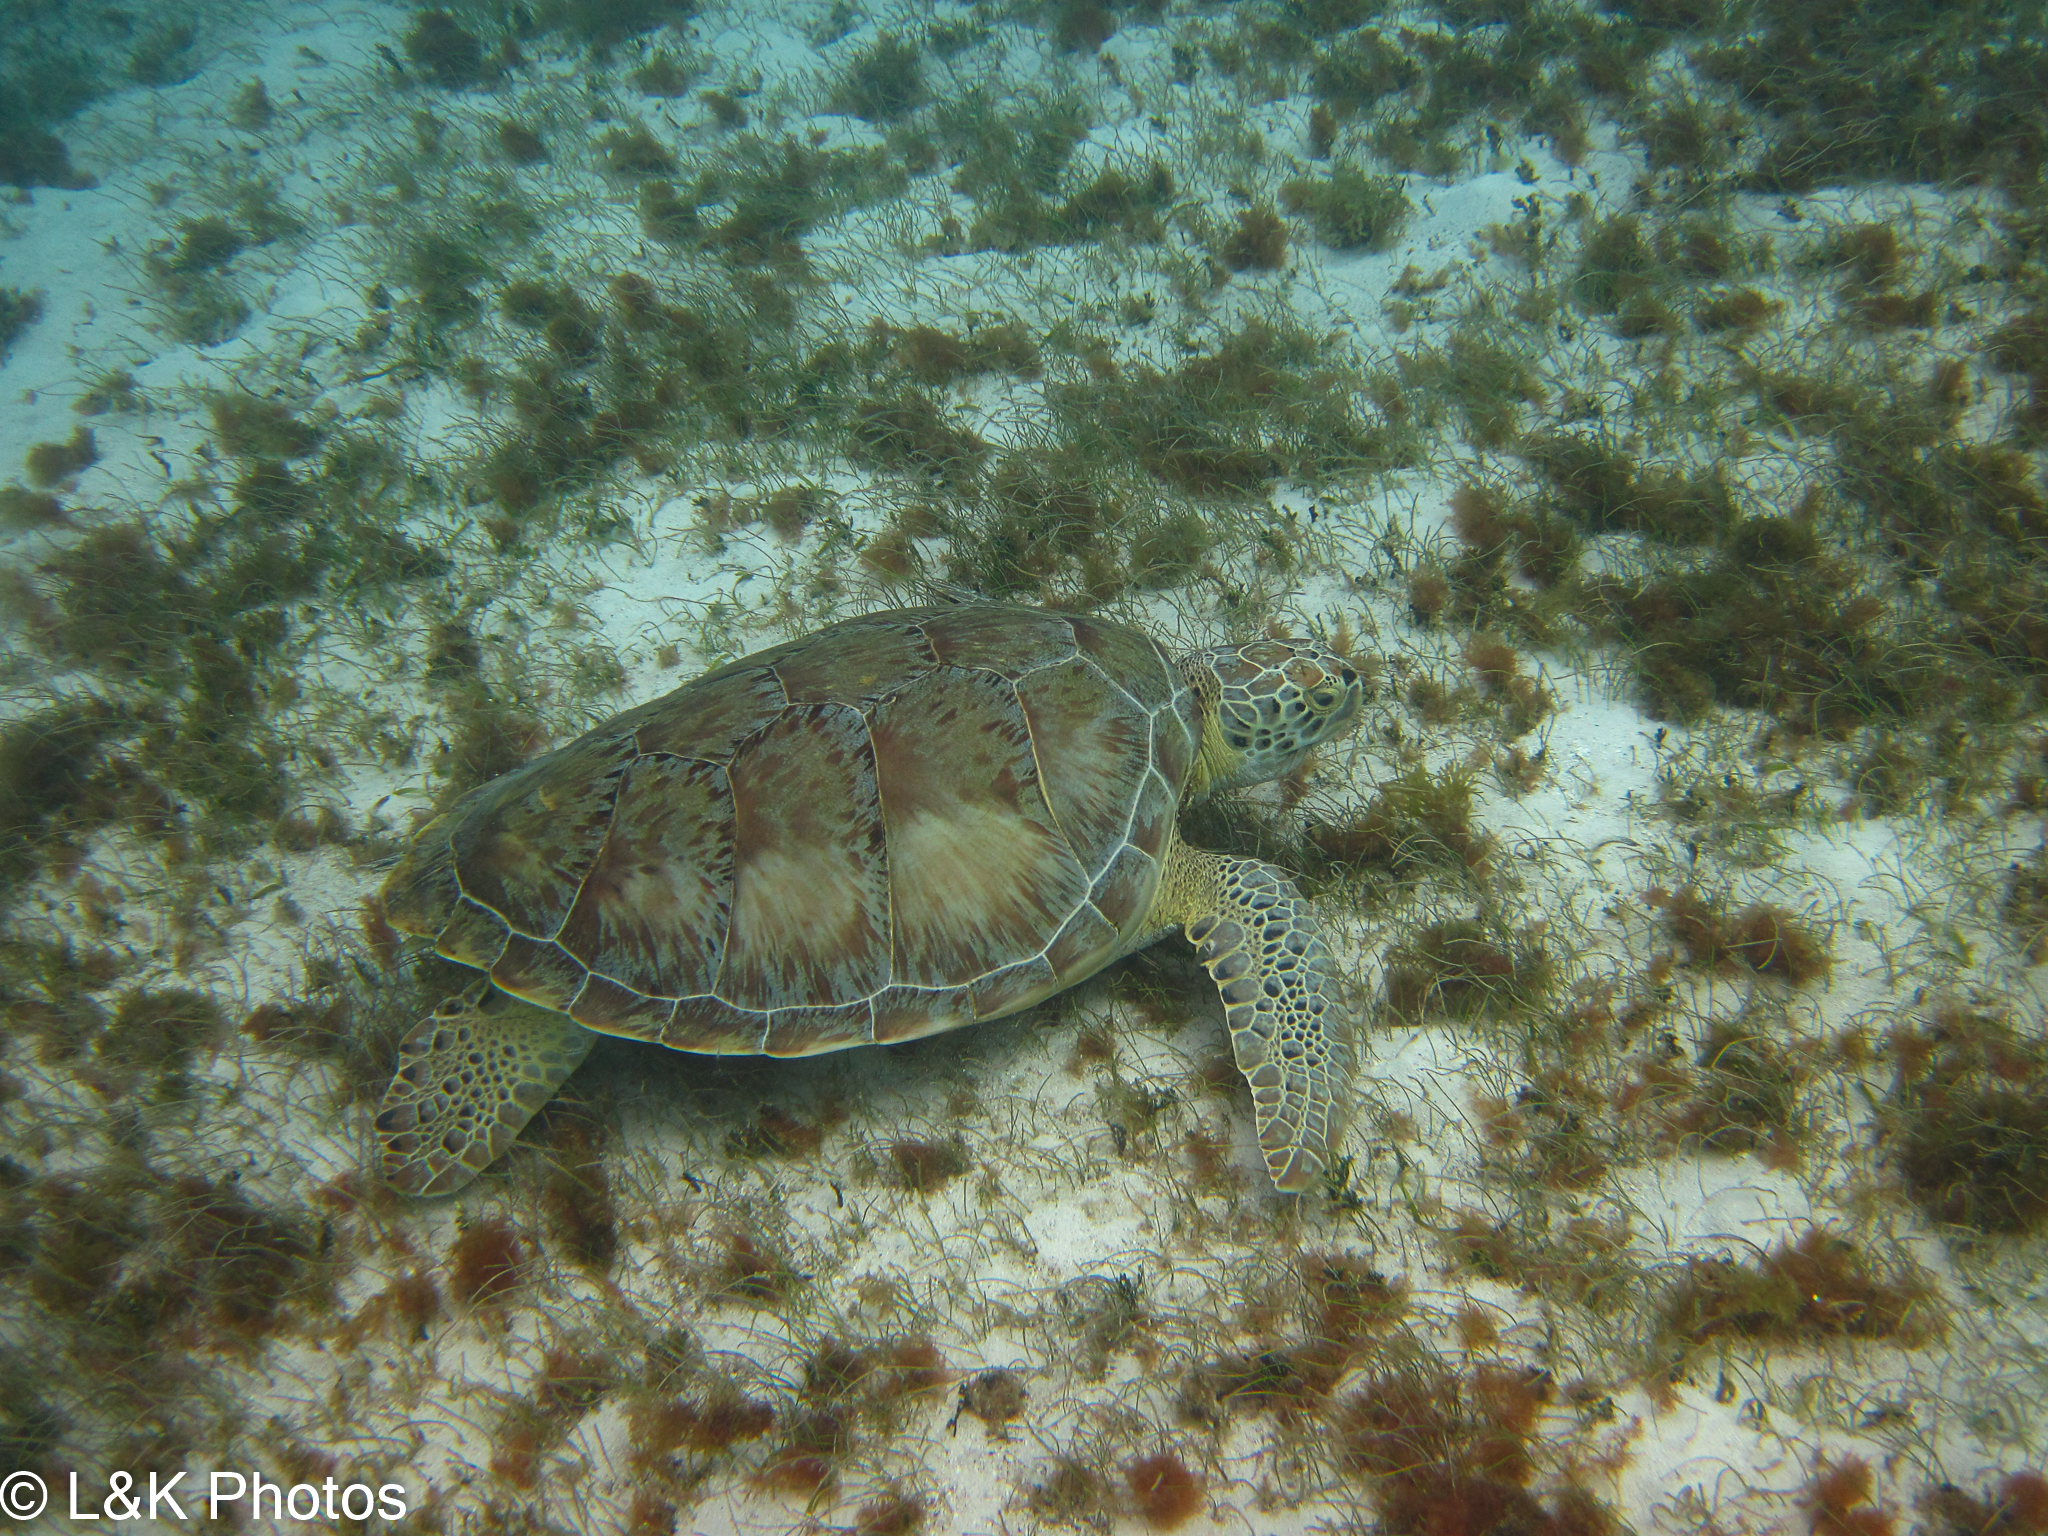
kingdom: Animalia
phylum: Chordata
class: Testudines
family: Cheloniidae
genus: Chelonia
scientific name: Chelonia mydas
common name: Green turtle
